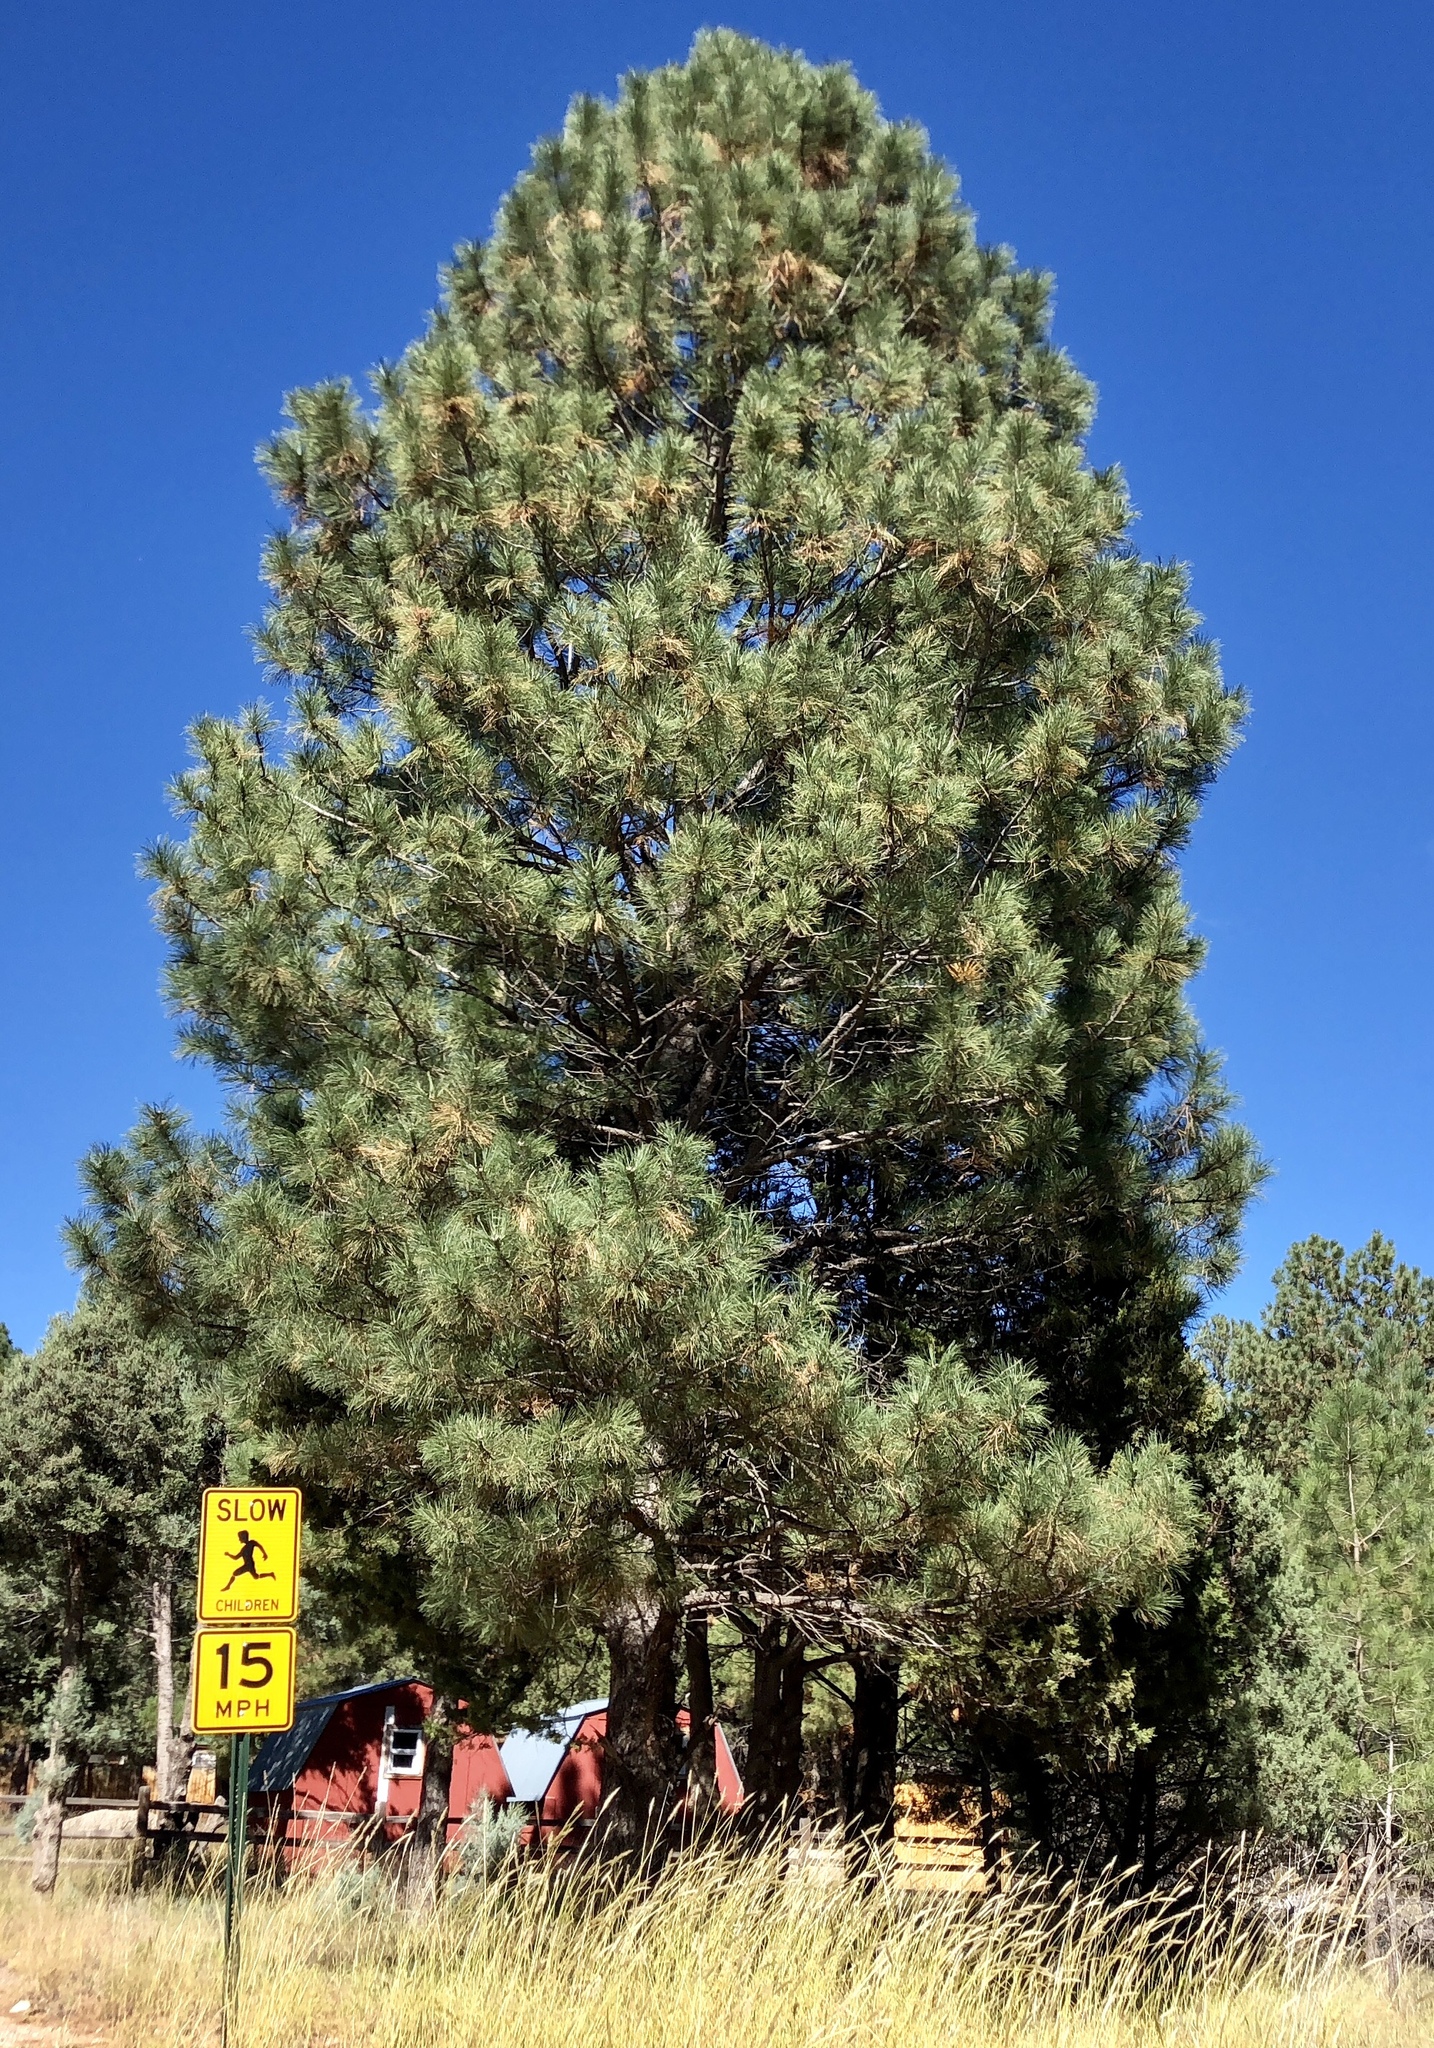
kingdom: Plantae
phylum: Tracheophyta
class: Pinopsida
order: Pinales
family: Pinaceae
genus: Pinus
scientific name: Pinus ponderosa
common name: Western yellow-pine
